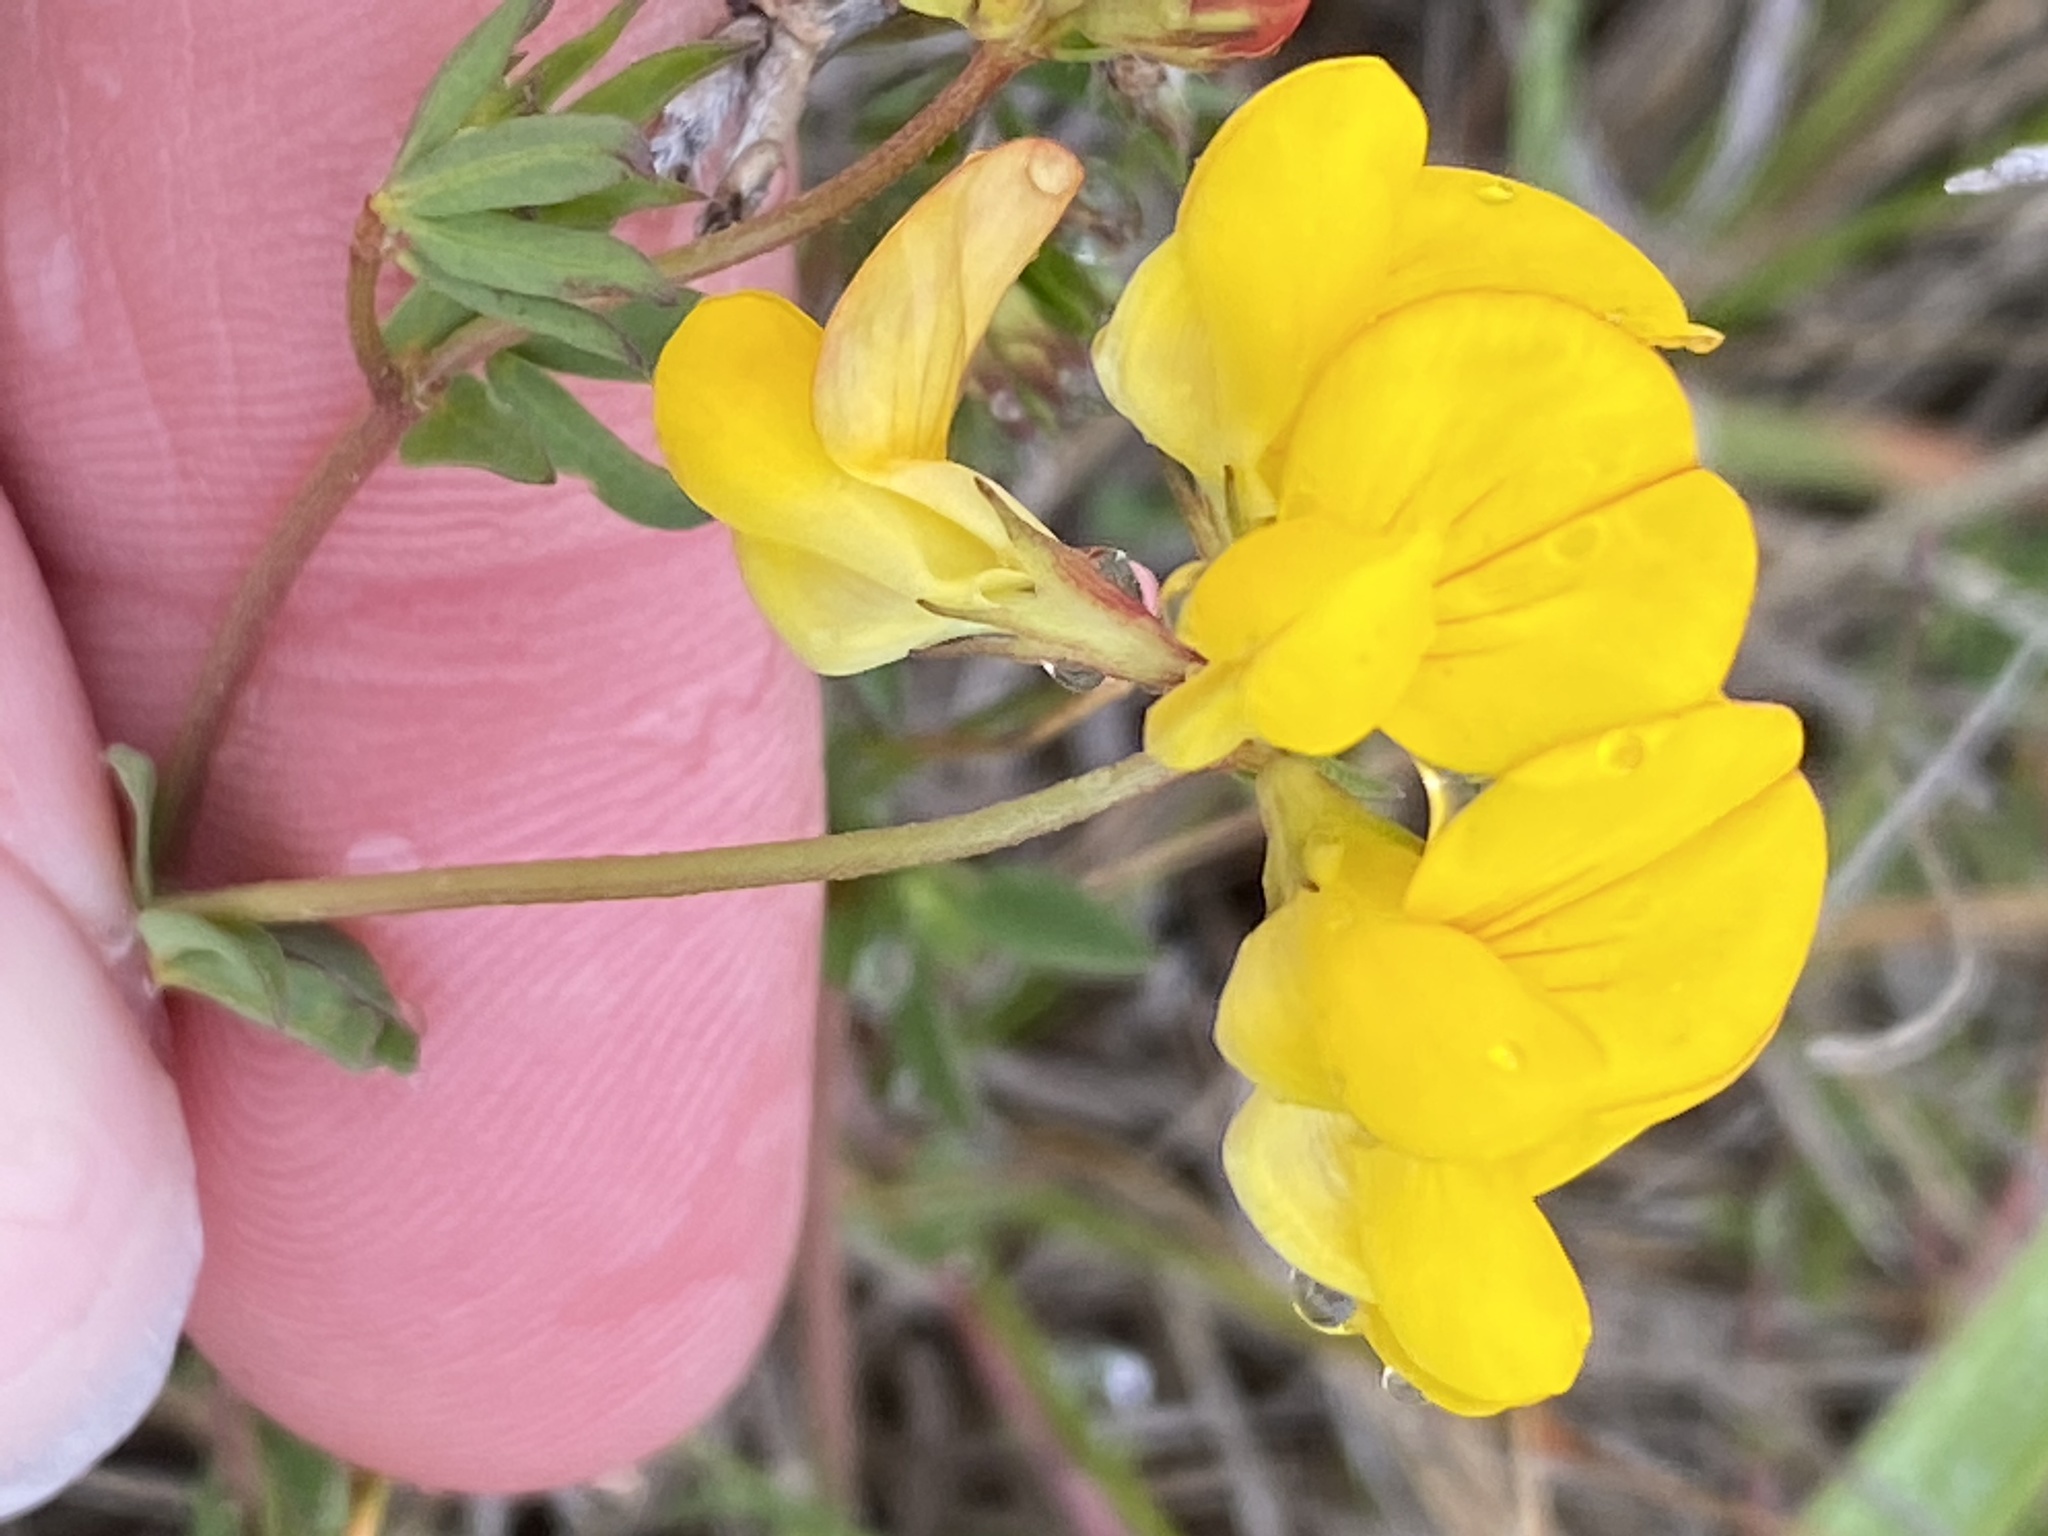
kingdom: Plantae
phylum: Tracheophyta
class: Magnoliopsida
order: Fabales
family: Fabaceae
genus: Lotus
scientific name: Lotus corniculatus
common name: Common bird's-foot-trefoil
